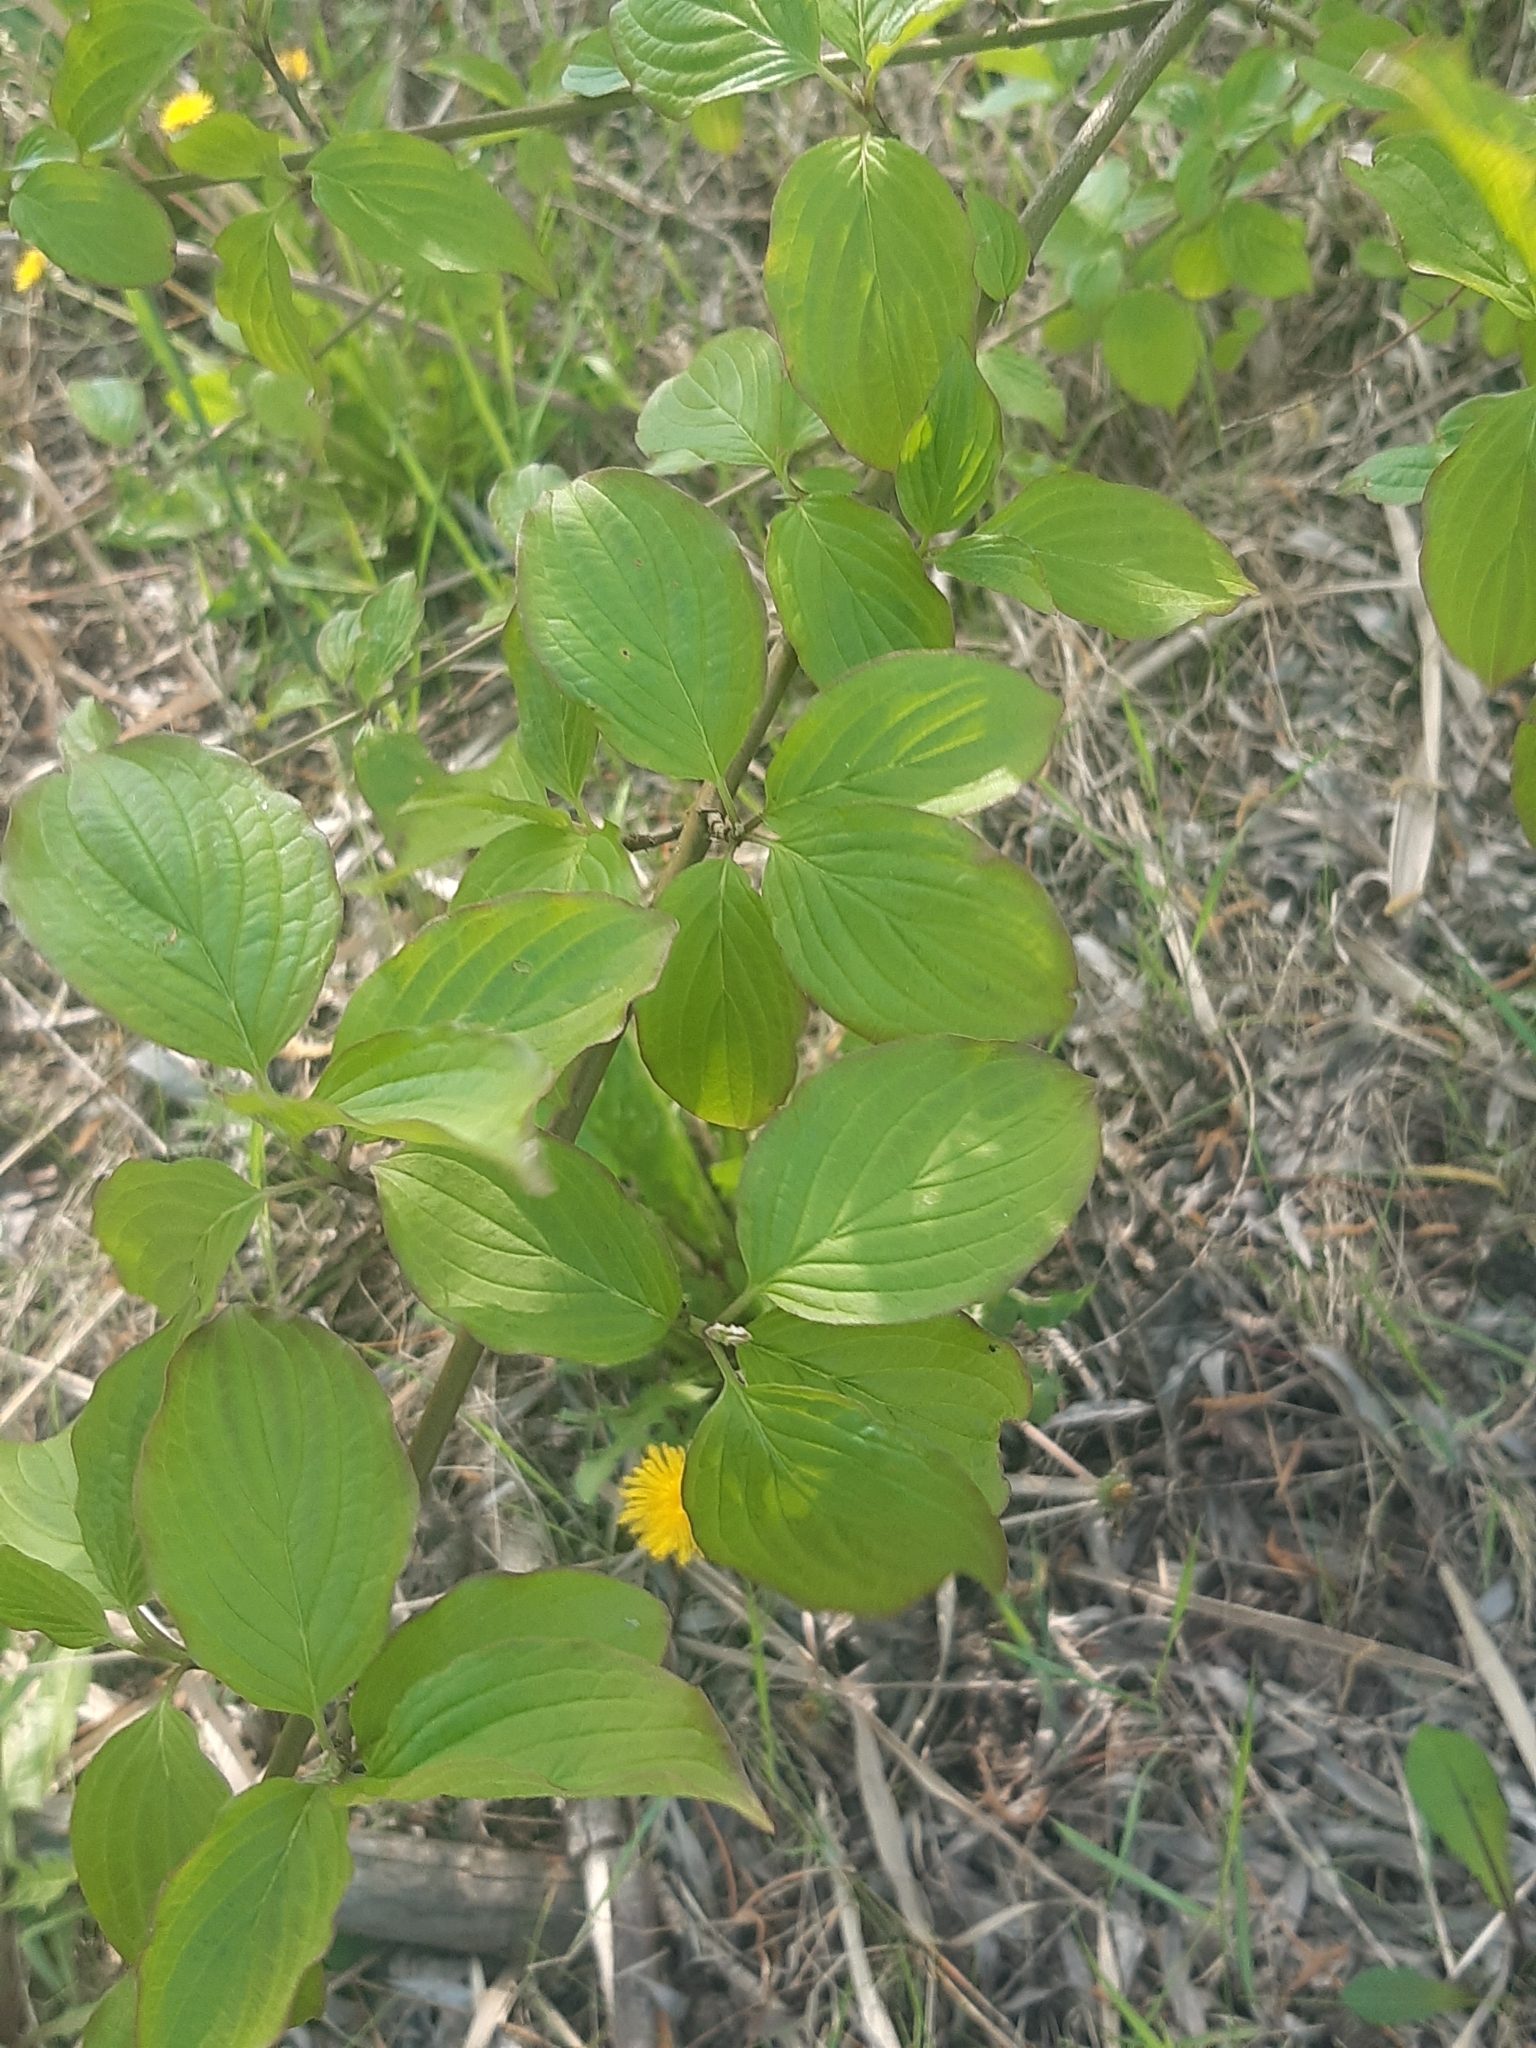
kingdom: Plantae
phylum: Tracheophyta
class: Magnoliopsida
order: Cornales
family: Cornaceae
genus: Cornus
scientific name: Cornus sanguinea
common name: Dogwood
